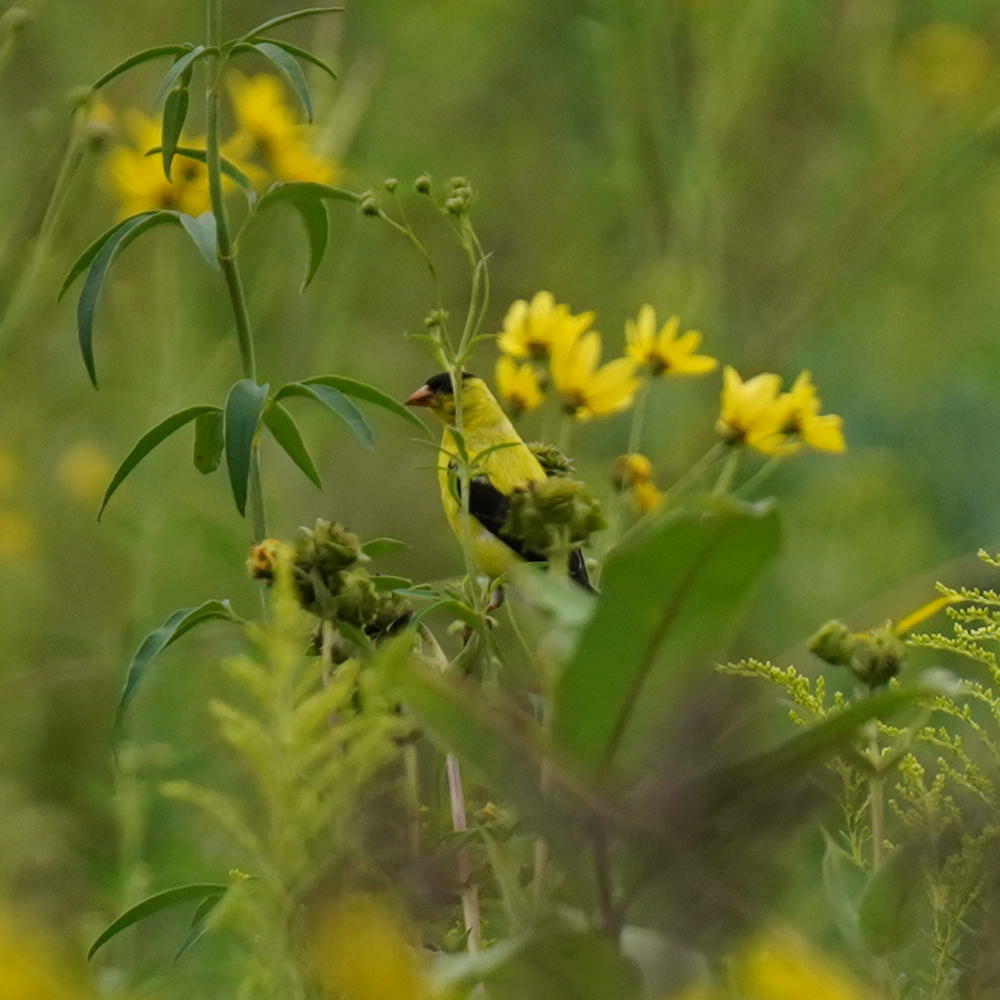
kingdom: Animalia
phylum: Chordata
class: Aves
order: Passeriformes
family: Fringillidae
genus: Spinus
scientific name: Spinus tristis
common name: American goldfinch
